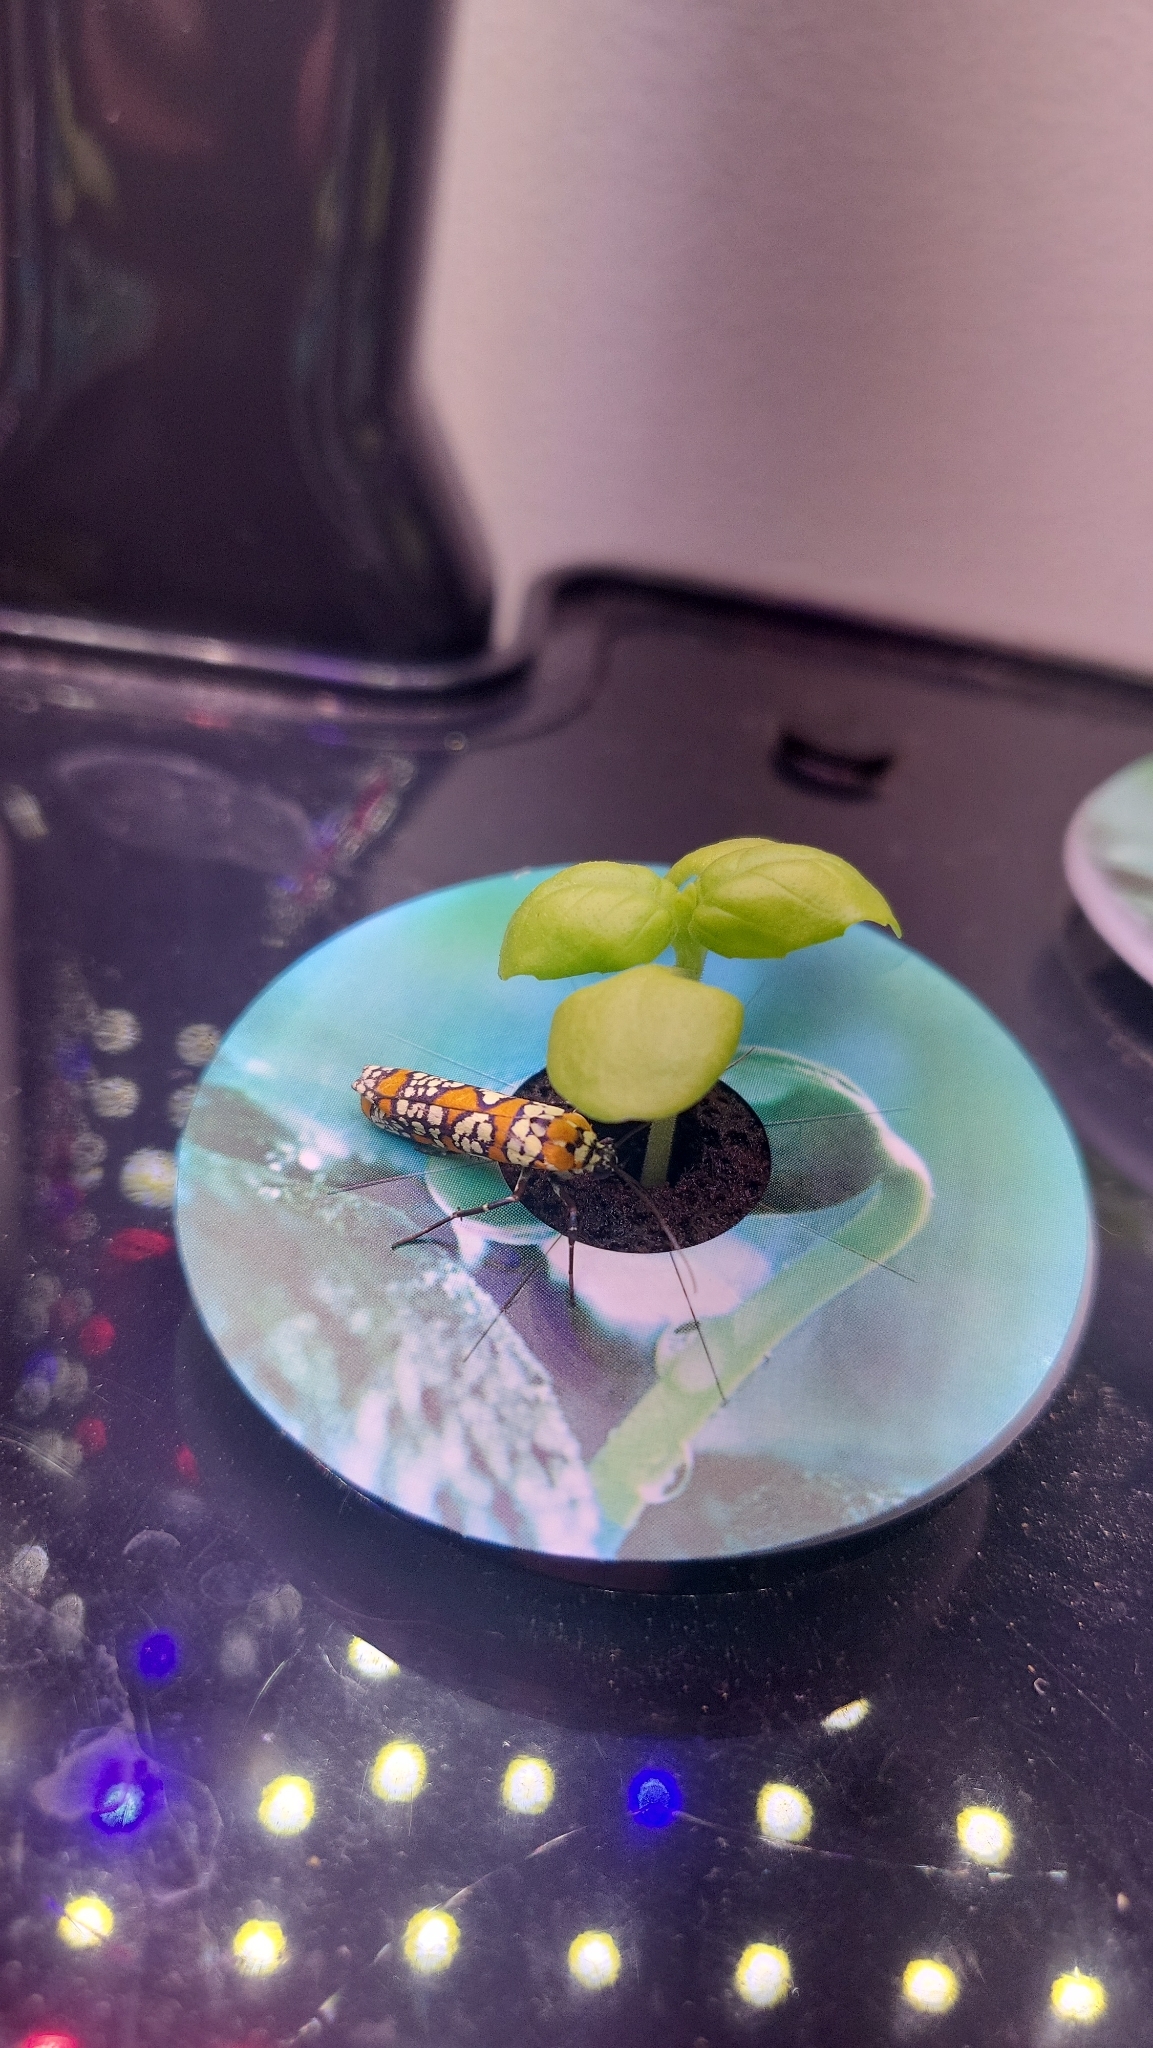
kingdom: Animalia
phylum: Arthropoda
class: Insecta
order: Lepidoptera
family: Attevidae
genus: Atteva
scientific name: Atteva punctella
